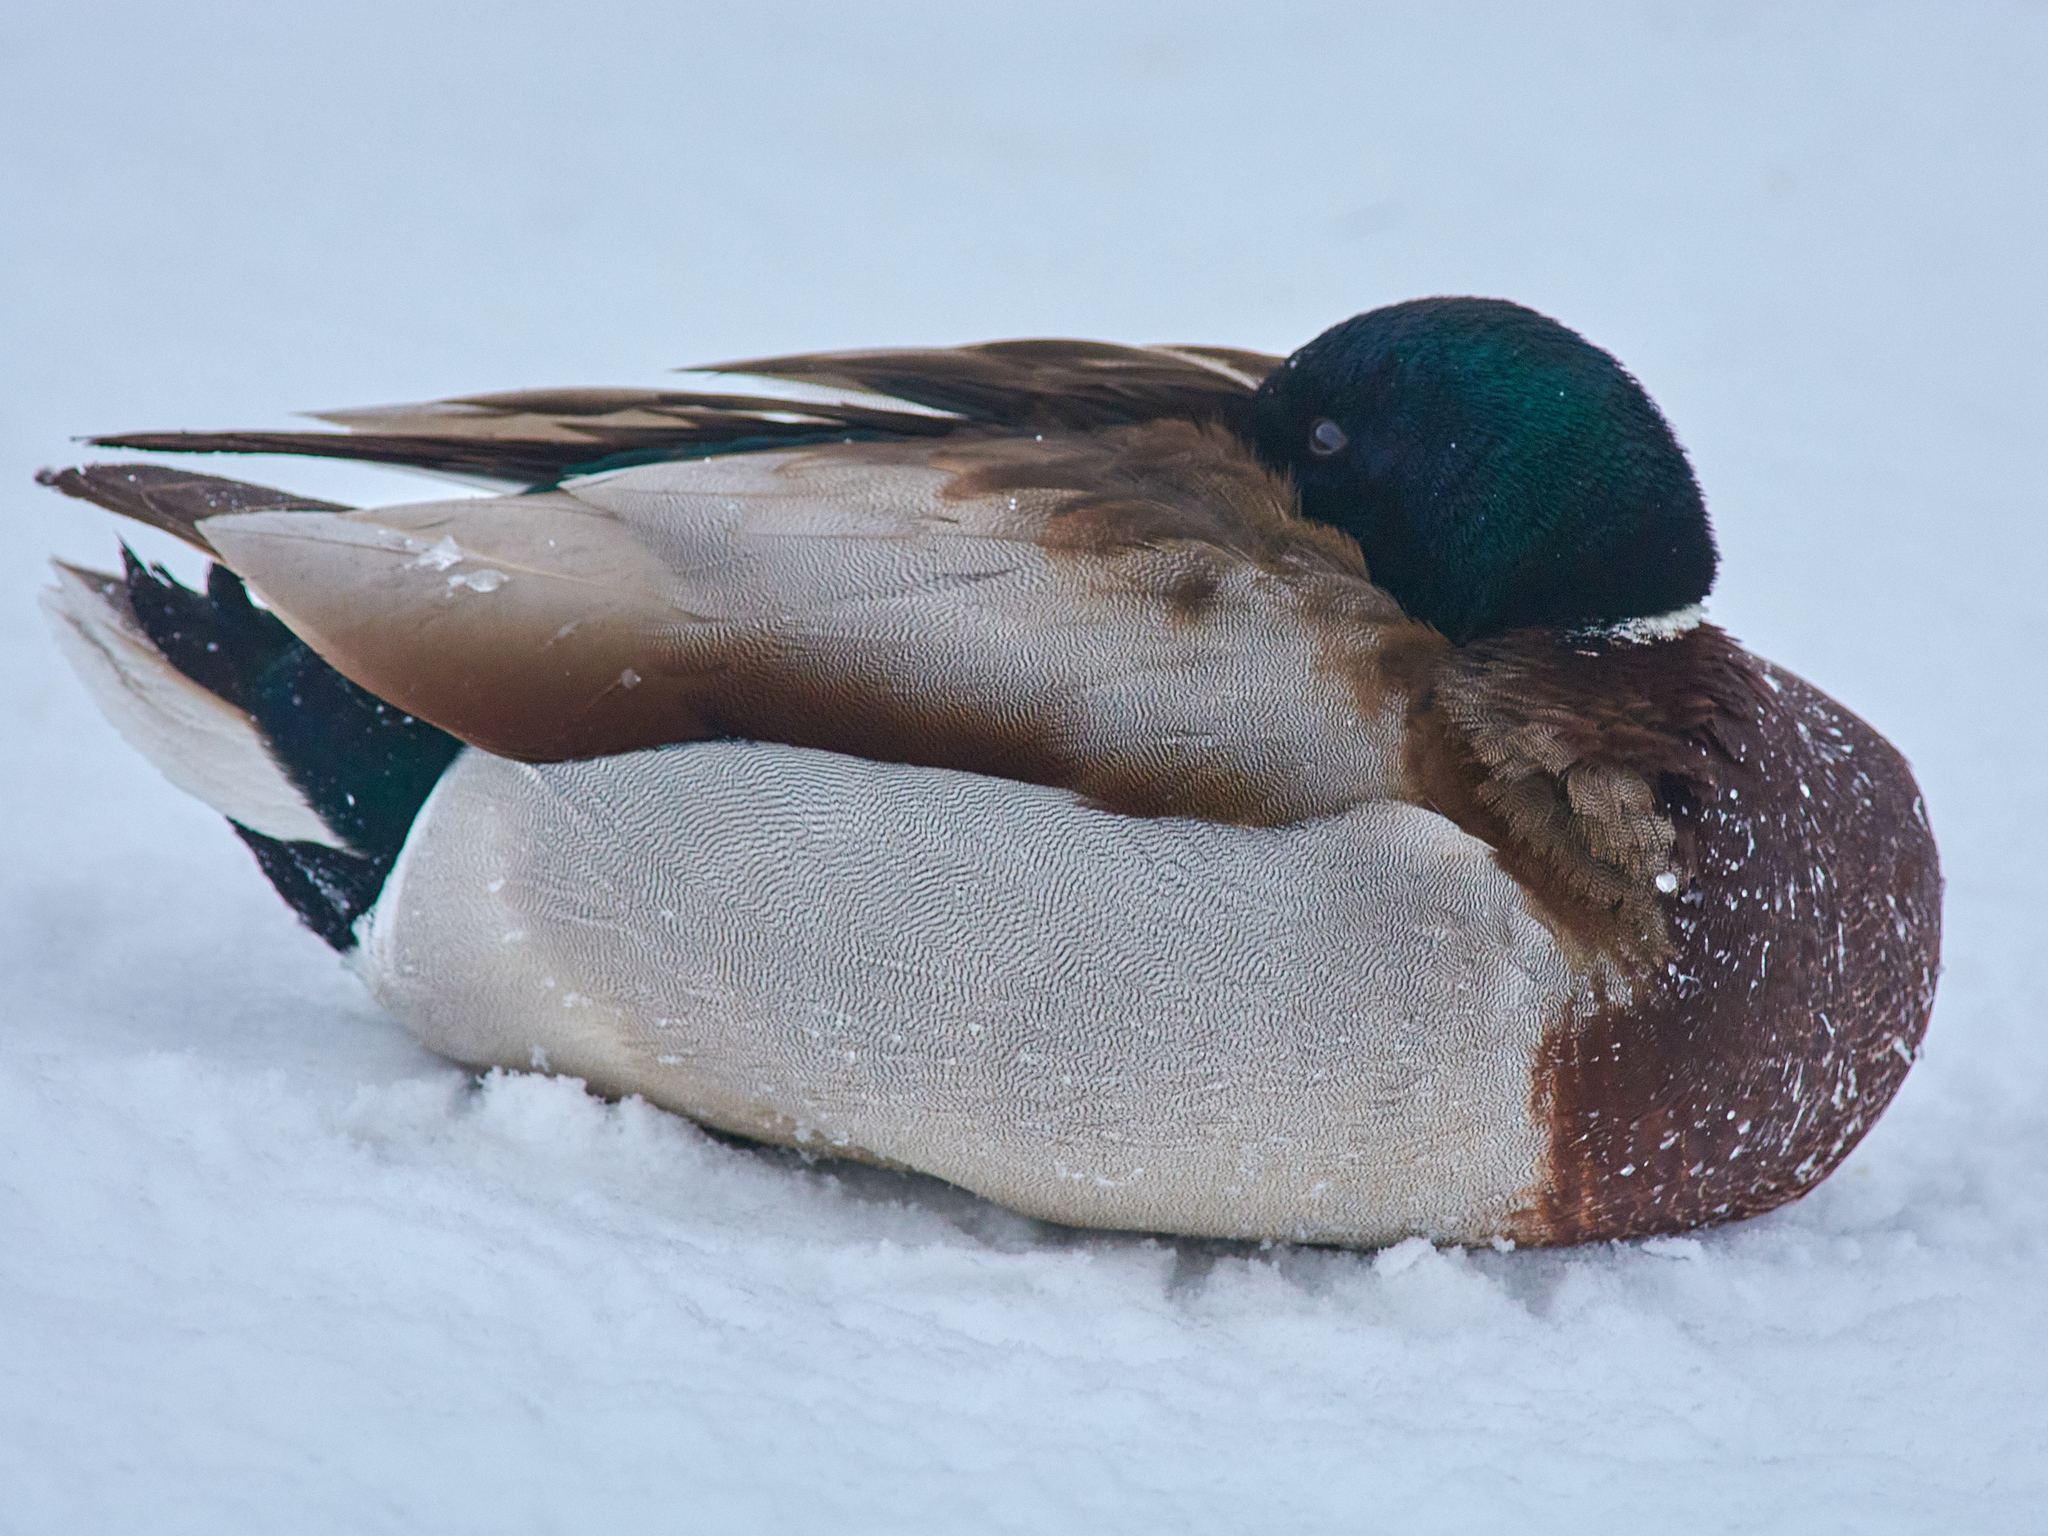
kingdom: Animalia
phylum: Chordata
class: Aves
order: Anseriformes
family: Anatidae
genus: Anas
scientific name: Anas platyrhynchos
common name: Mallard
